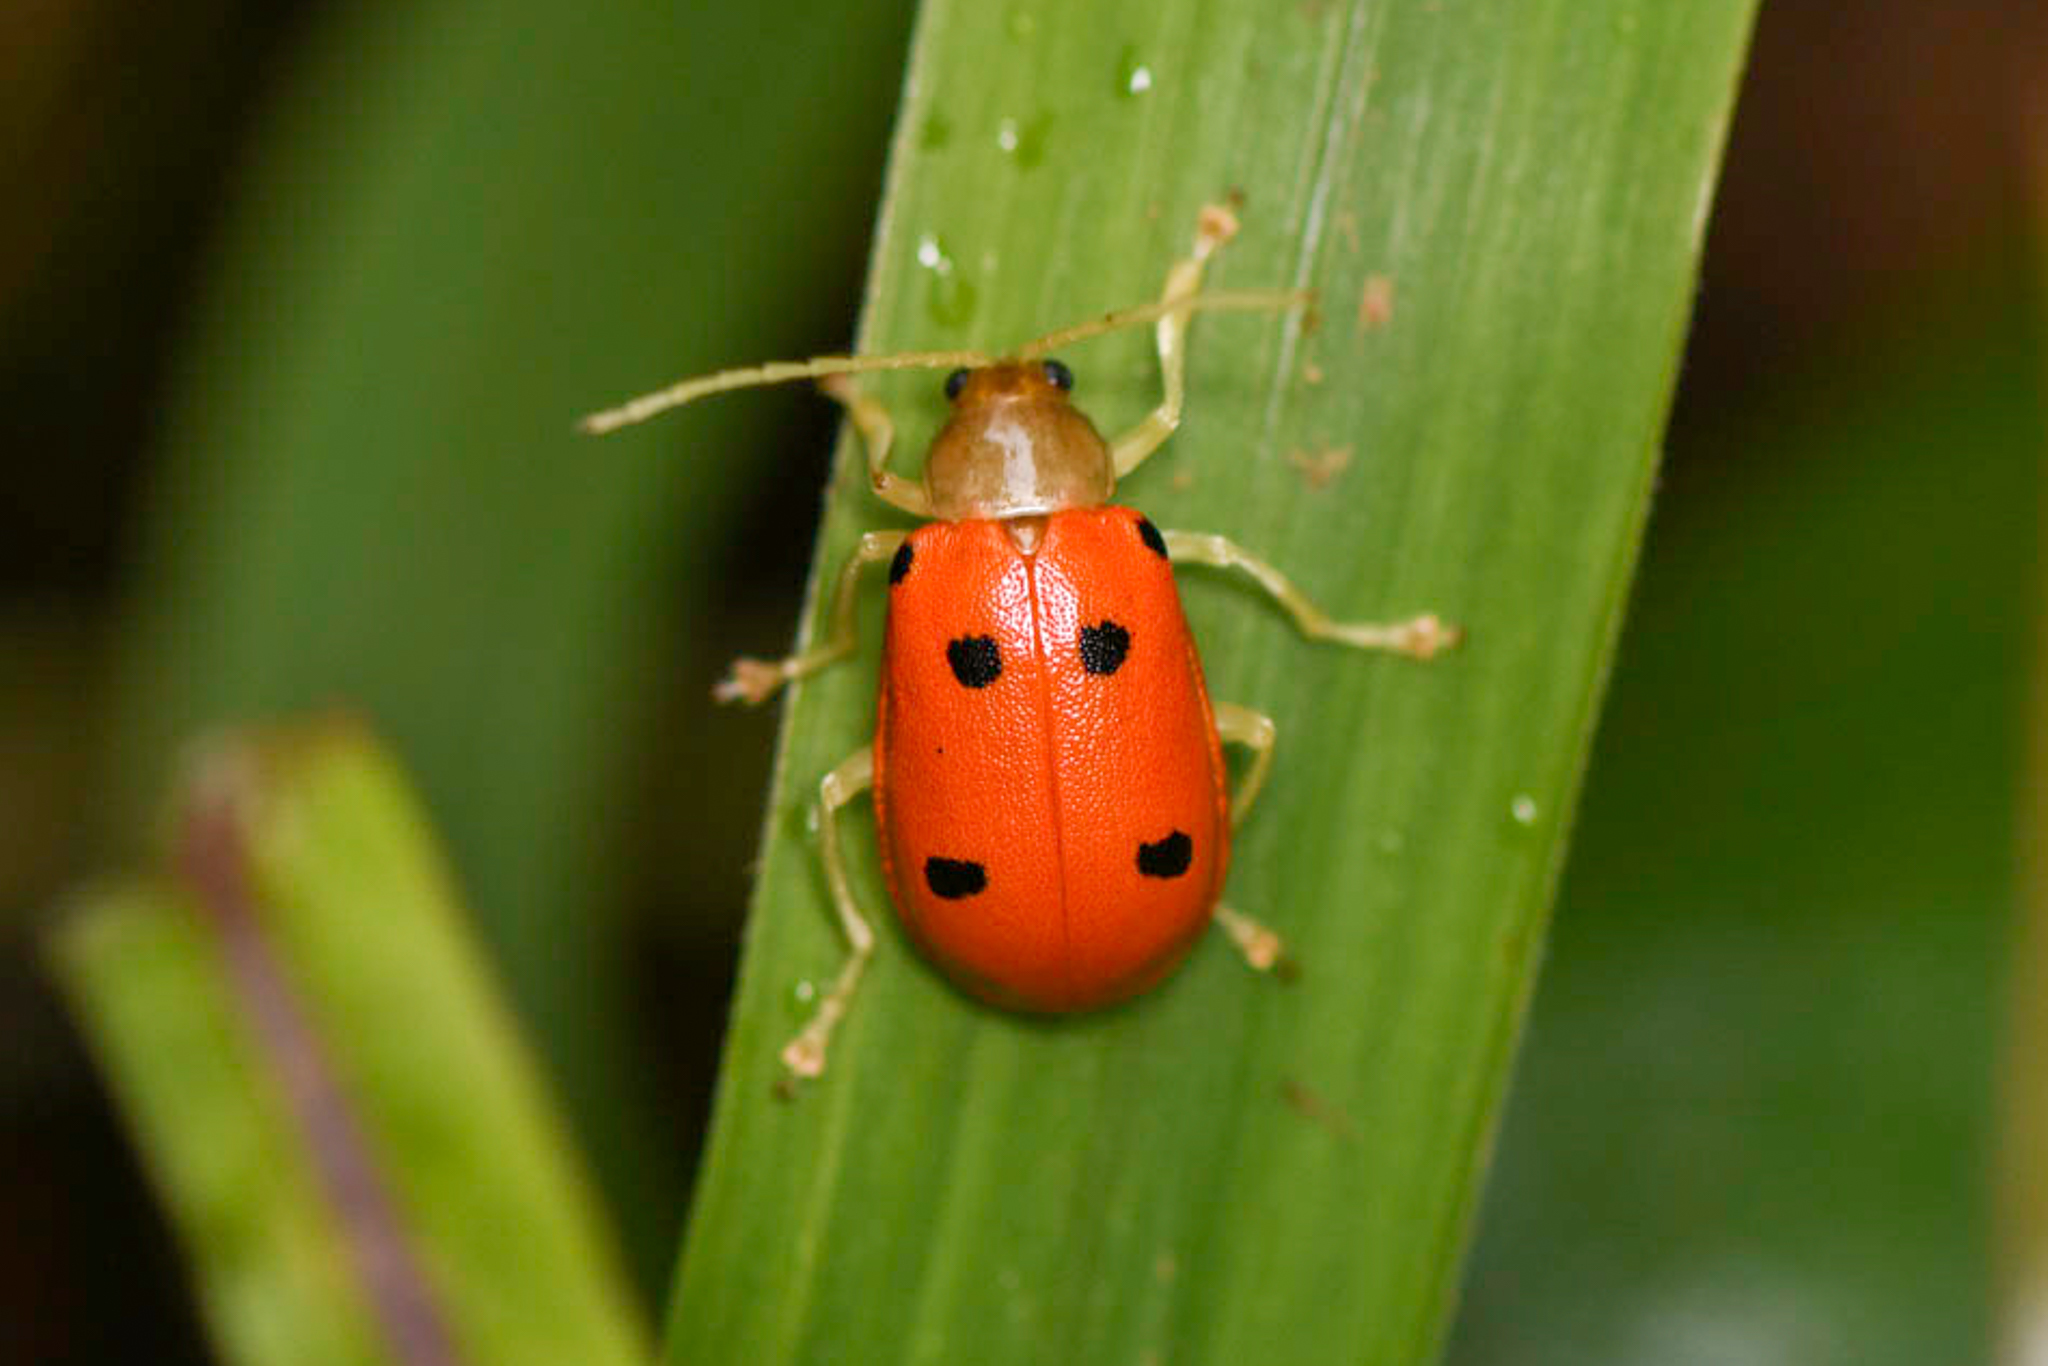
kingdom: Animalia
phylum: Arthropoda
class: Insecta
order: Coleoptera
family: Chrysomelidae
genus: Isotes
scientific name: Isotes
